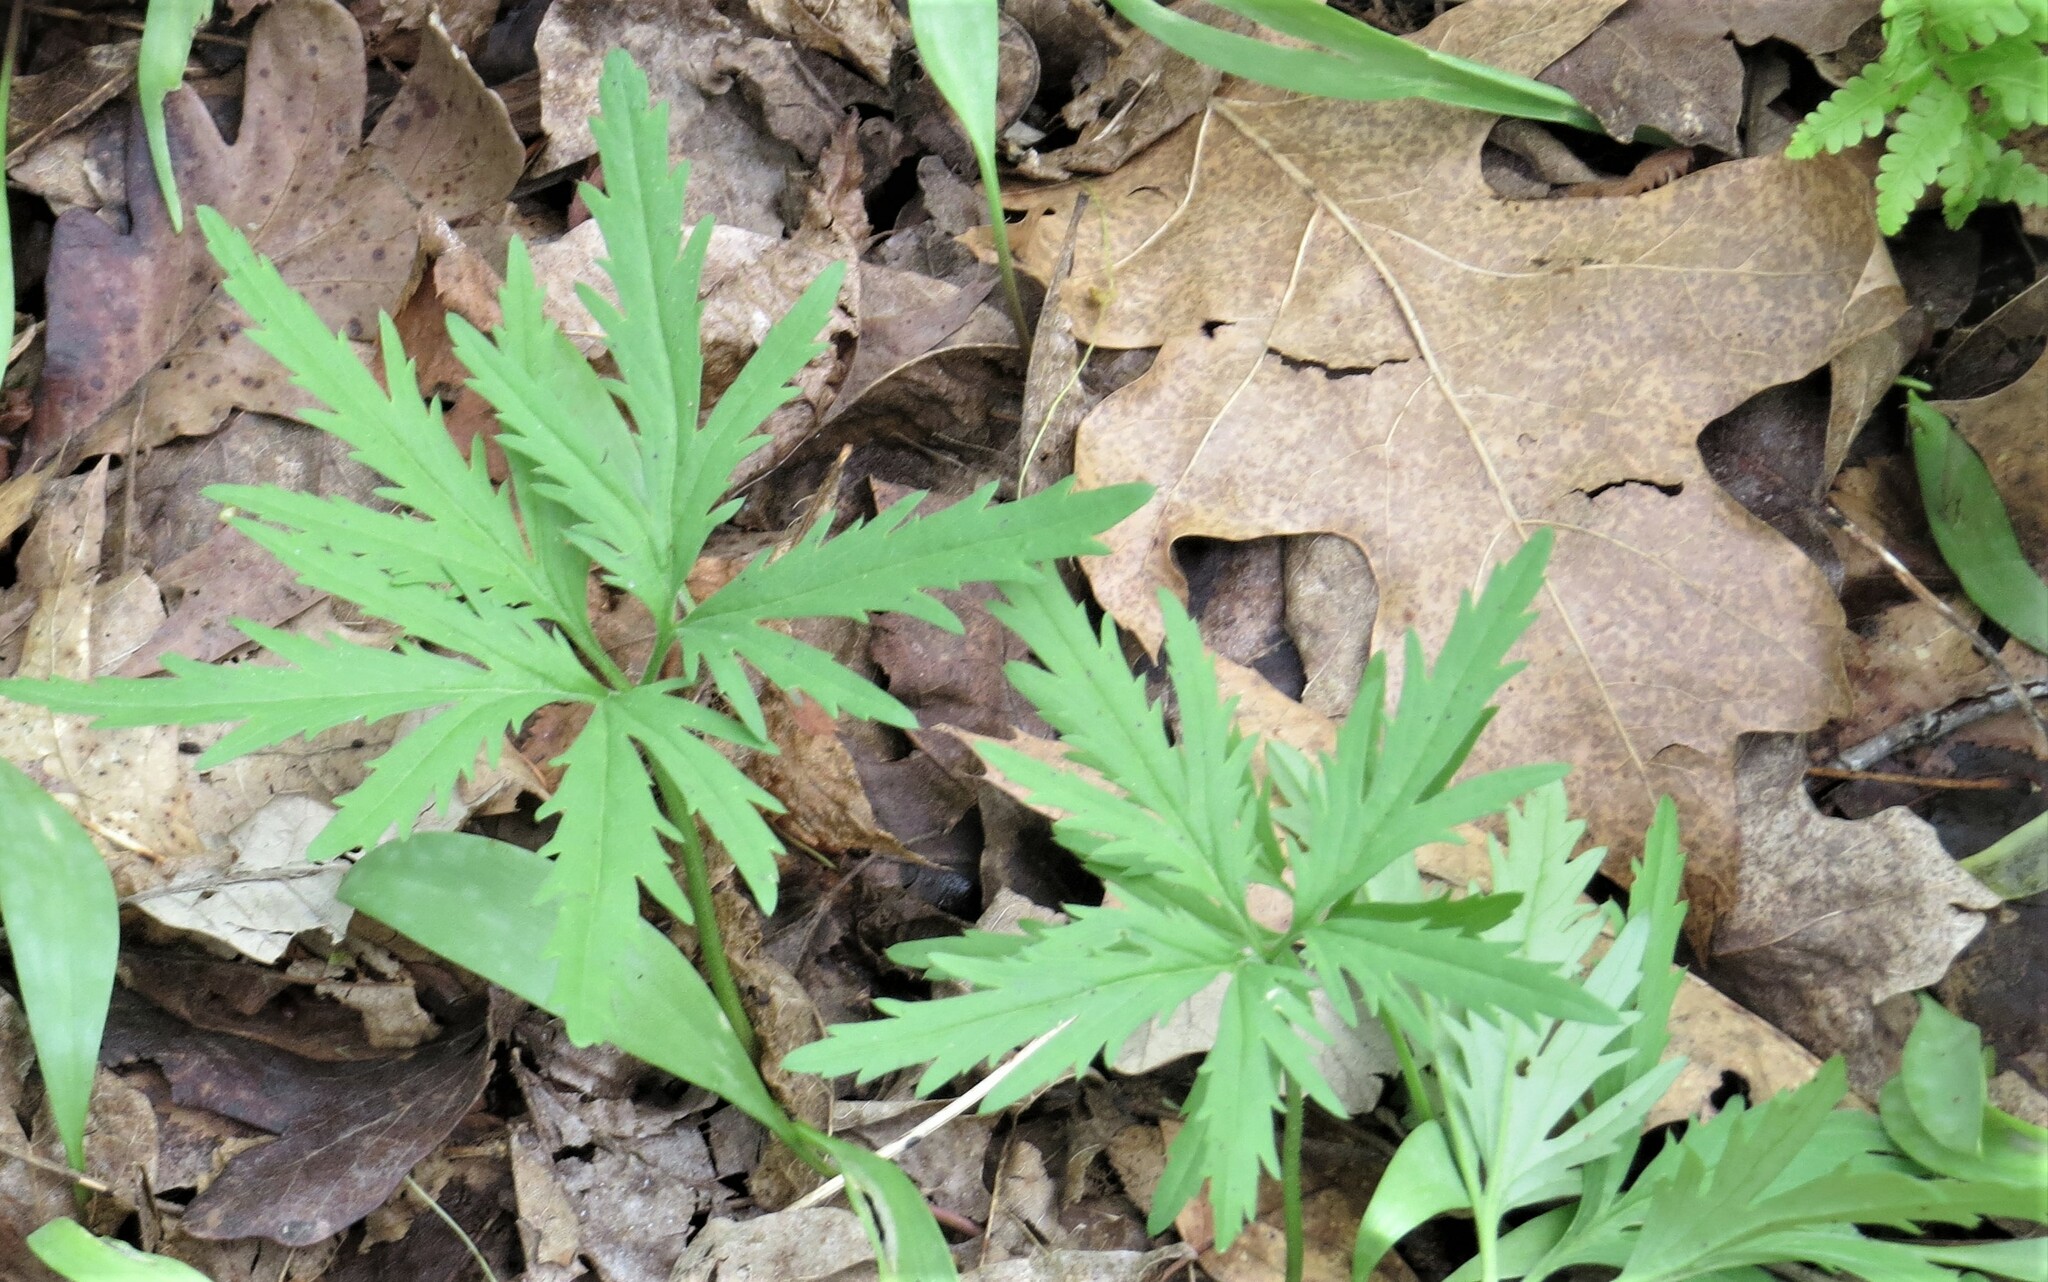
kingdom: Plantae
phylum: Tracheophyta
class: Magnoliopsida
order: Brassicales
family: Brassicaceae
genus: Cardamine
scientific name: Cardamine concatenata
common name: Cut-leaf toothcup
